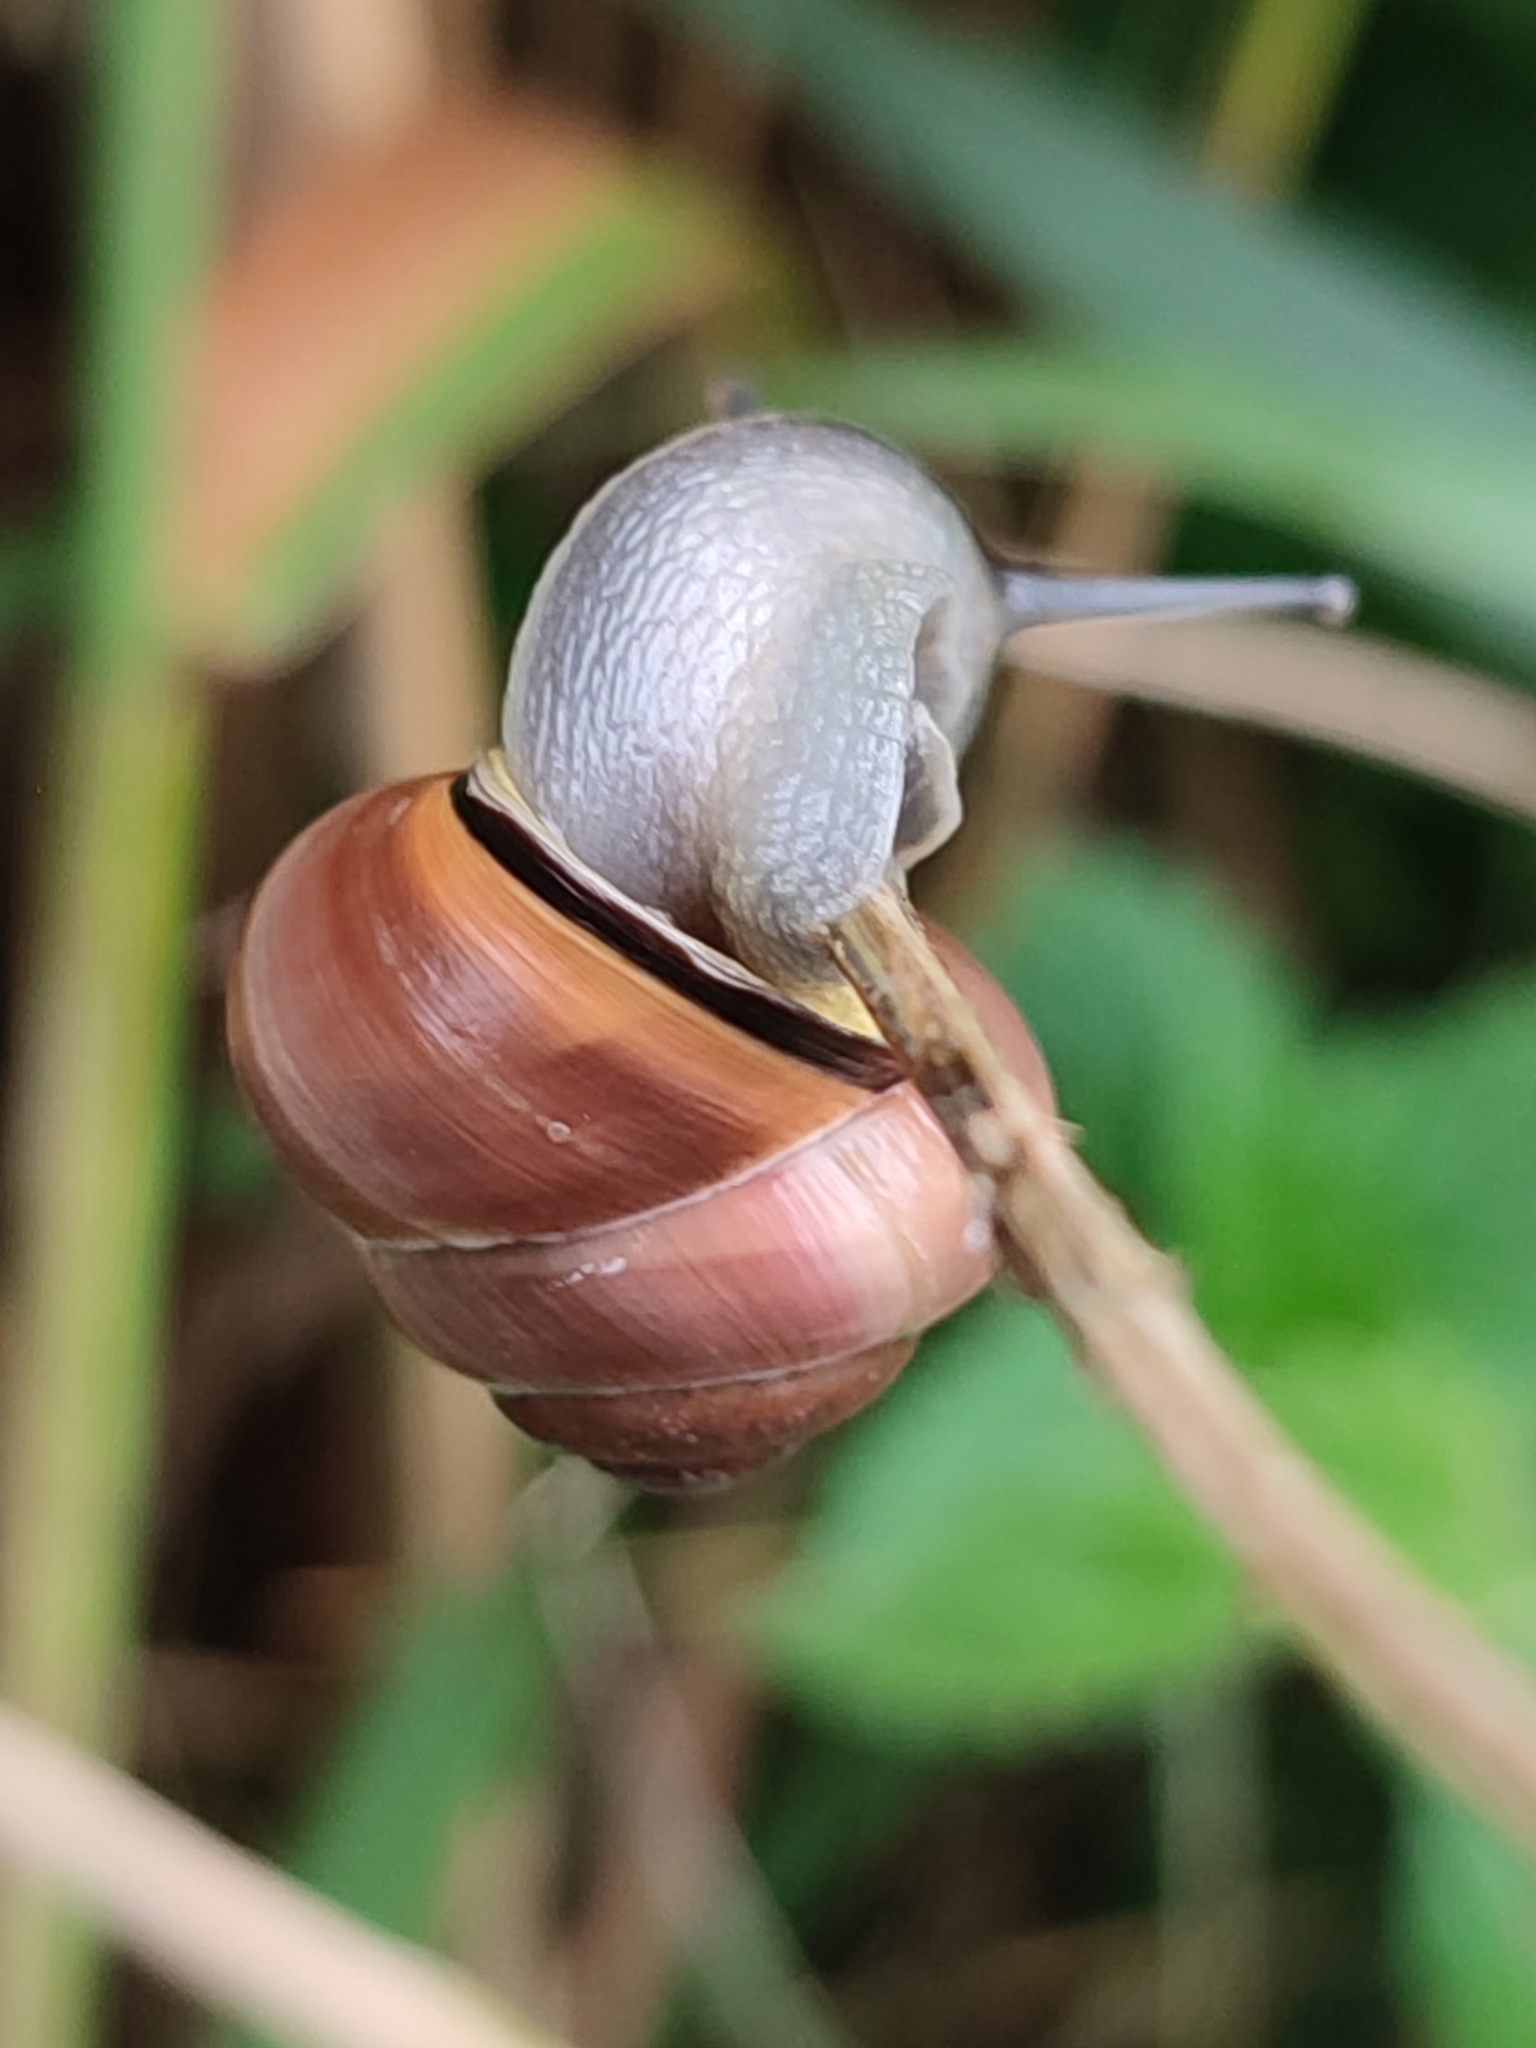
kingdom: Animalia
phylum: Mollusca
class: Gastropoda
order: Stylommatophora
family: Helicidae
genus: Cepaea
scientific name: Cepaea nemoralis
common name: Grovesnail
